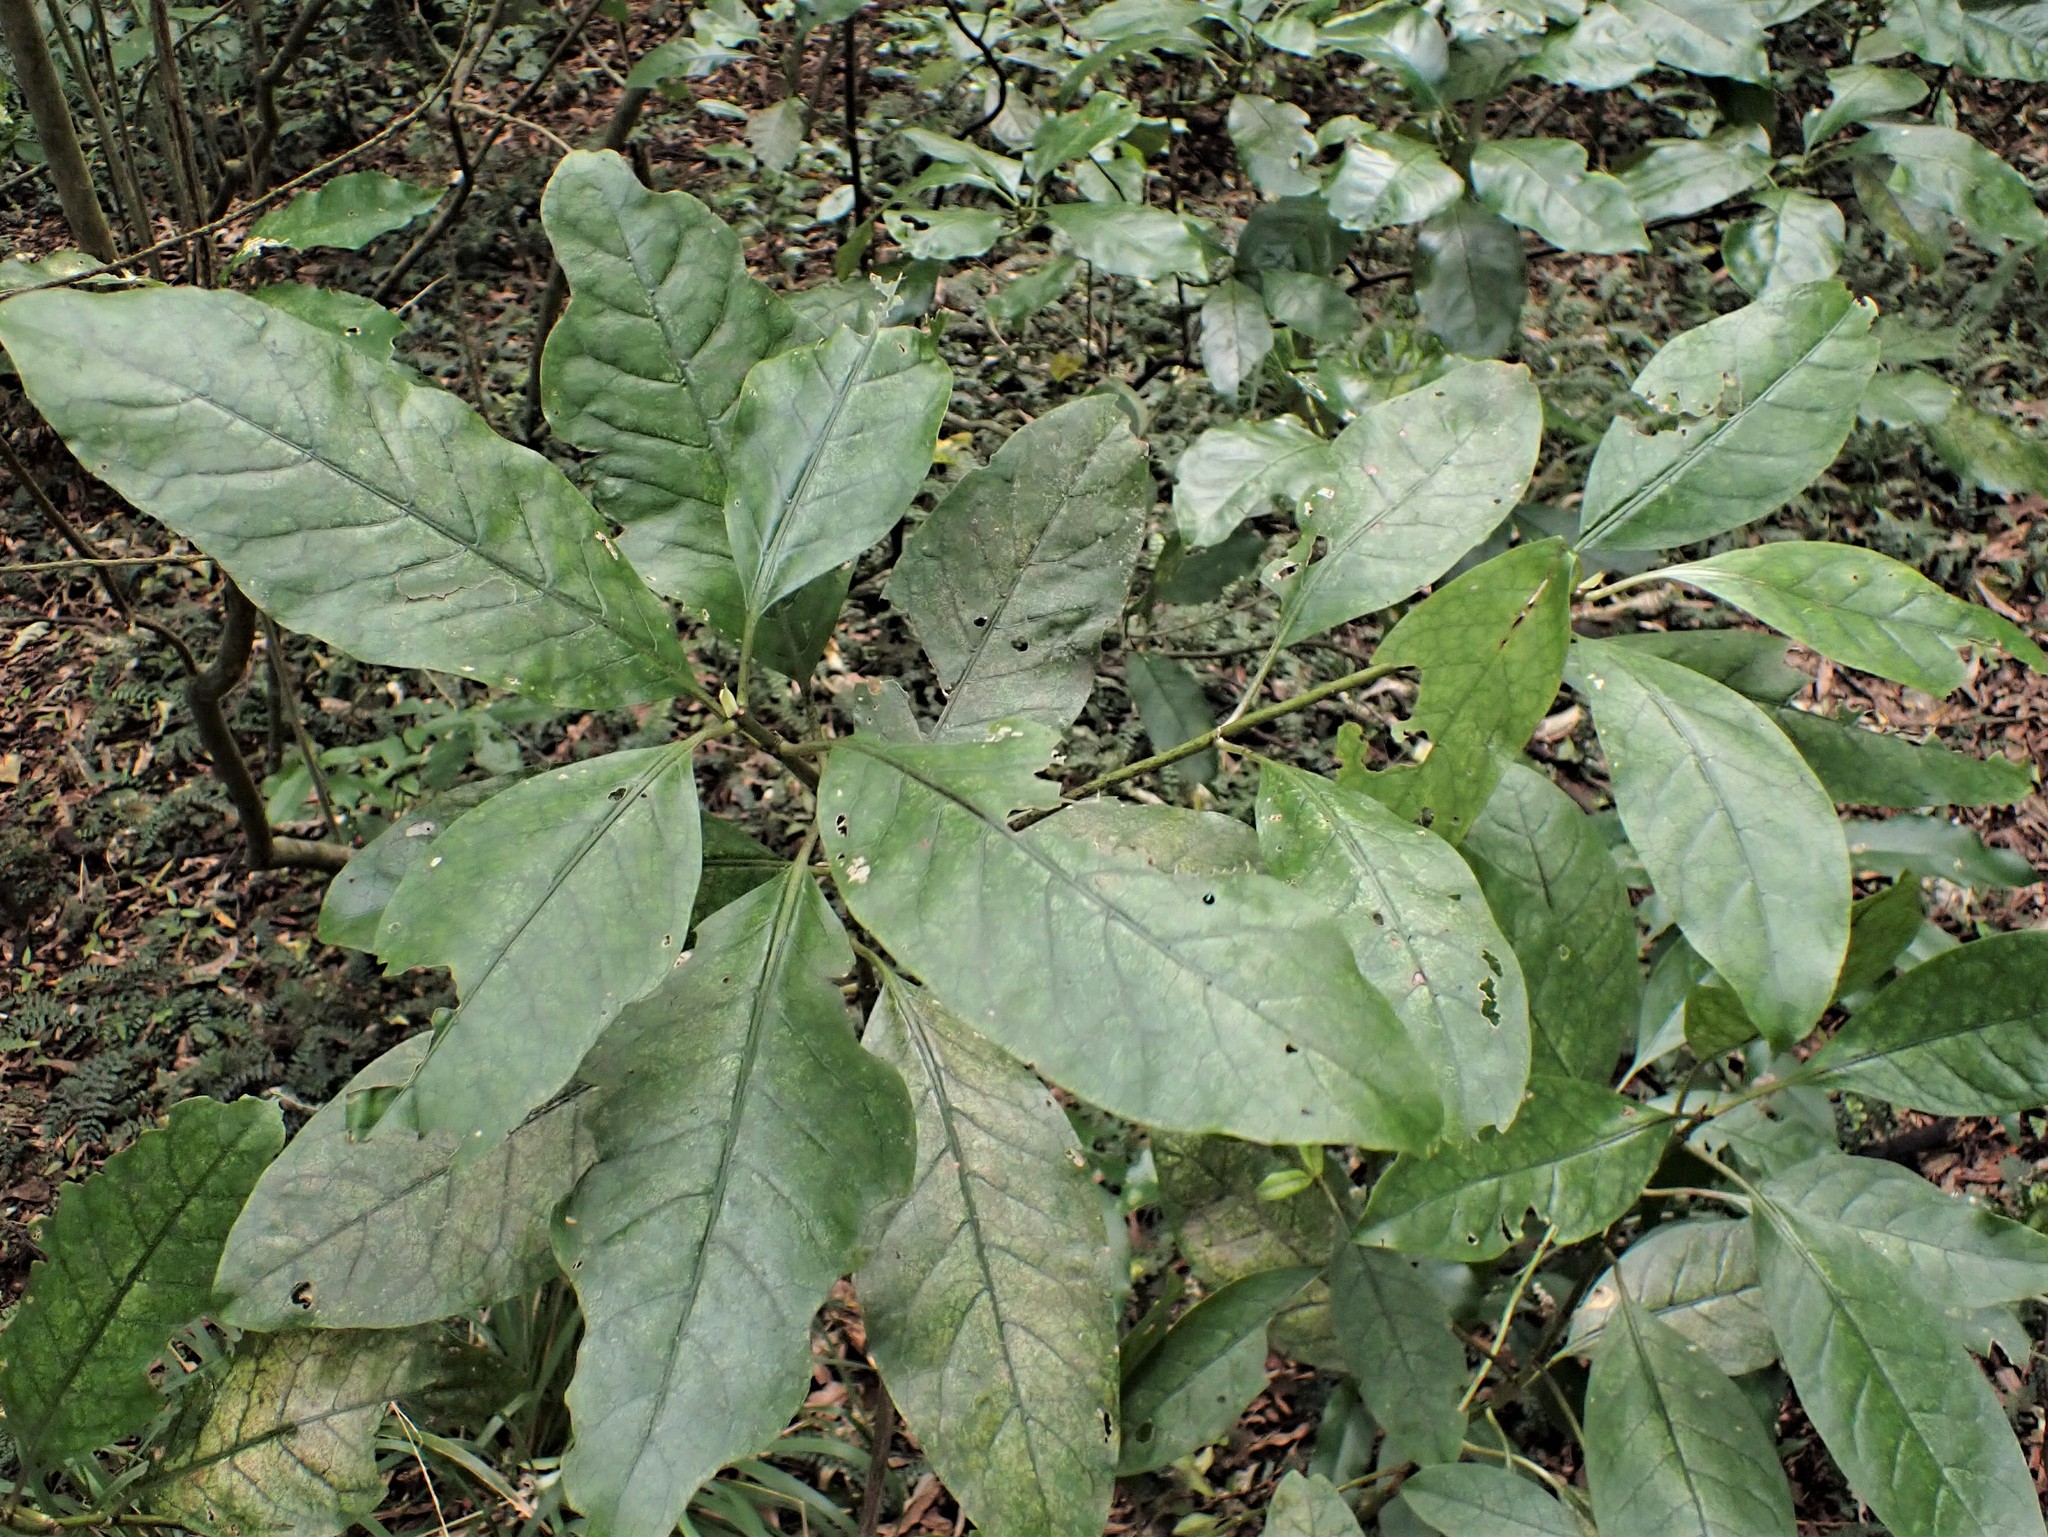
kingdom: Plantae
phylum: Tracheophyta
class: Magnoliopsida
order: Gentianales
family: Rubiaceae
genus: Coprosma
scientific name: Coprosma autumnalis
